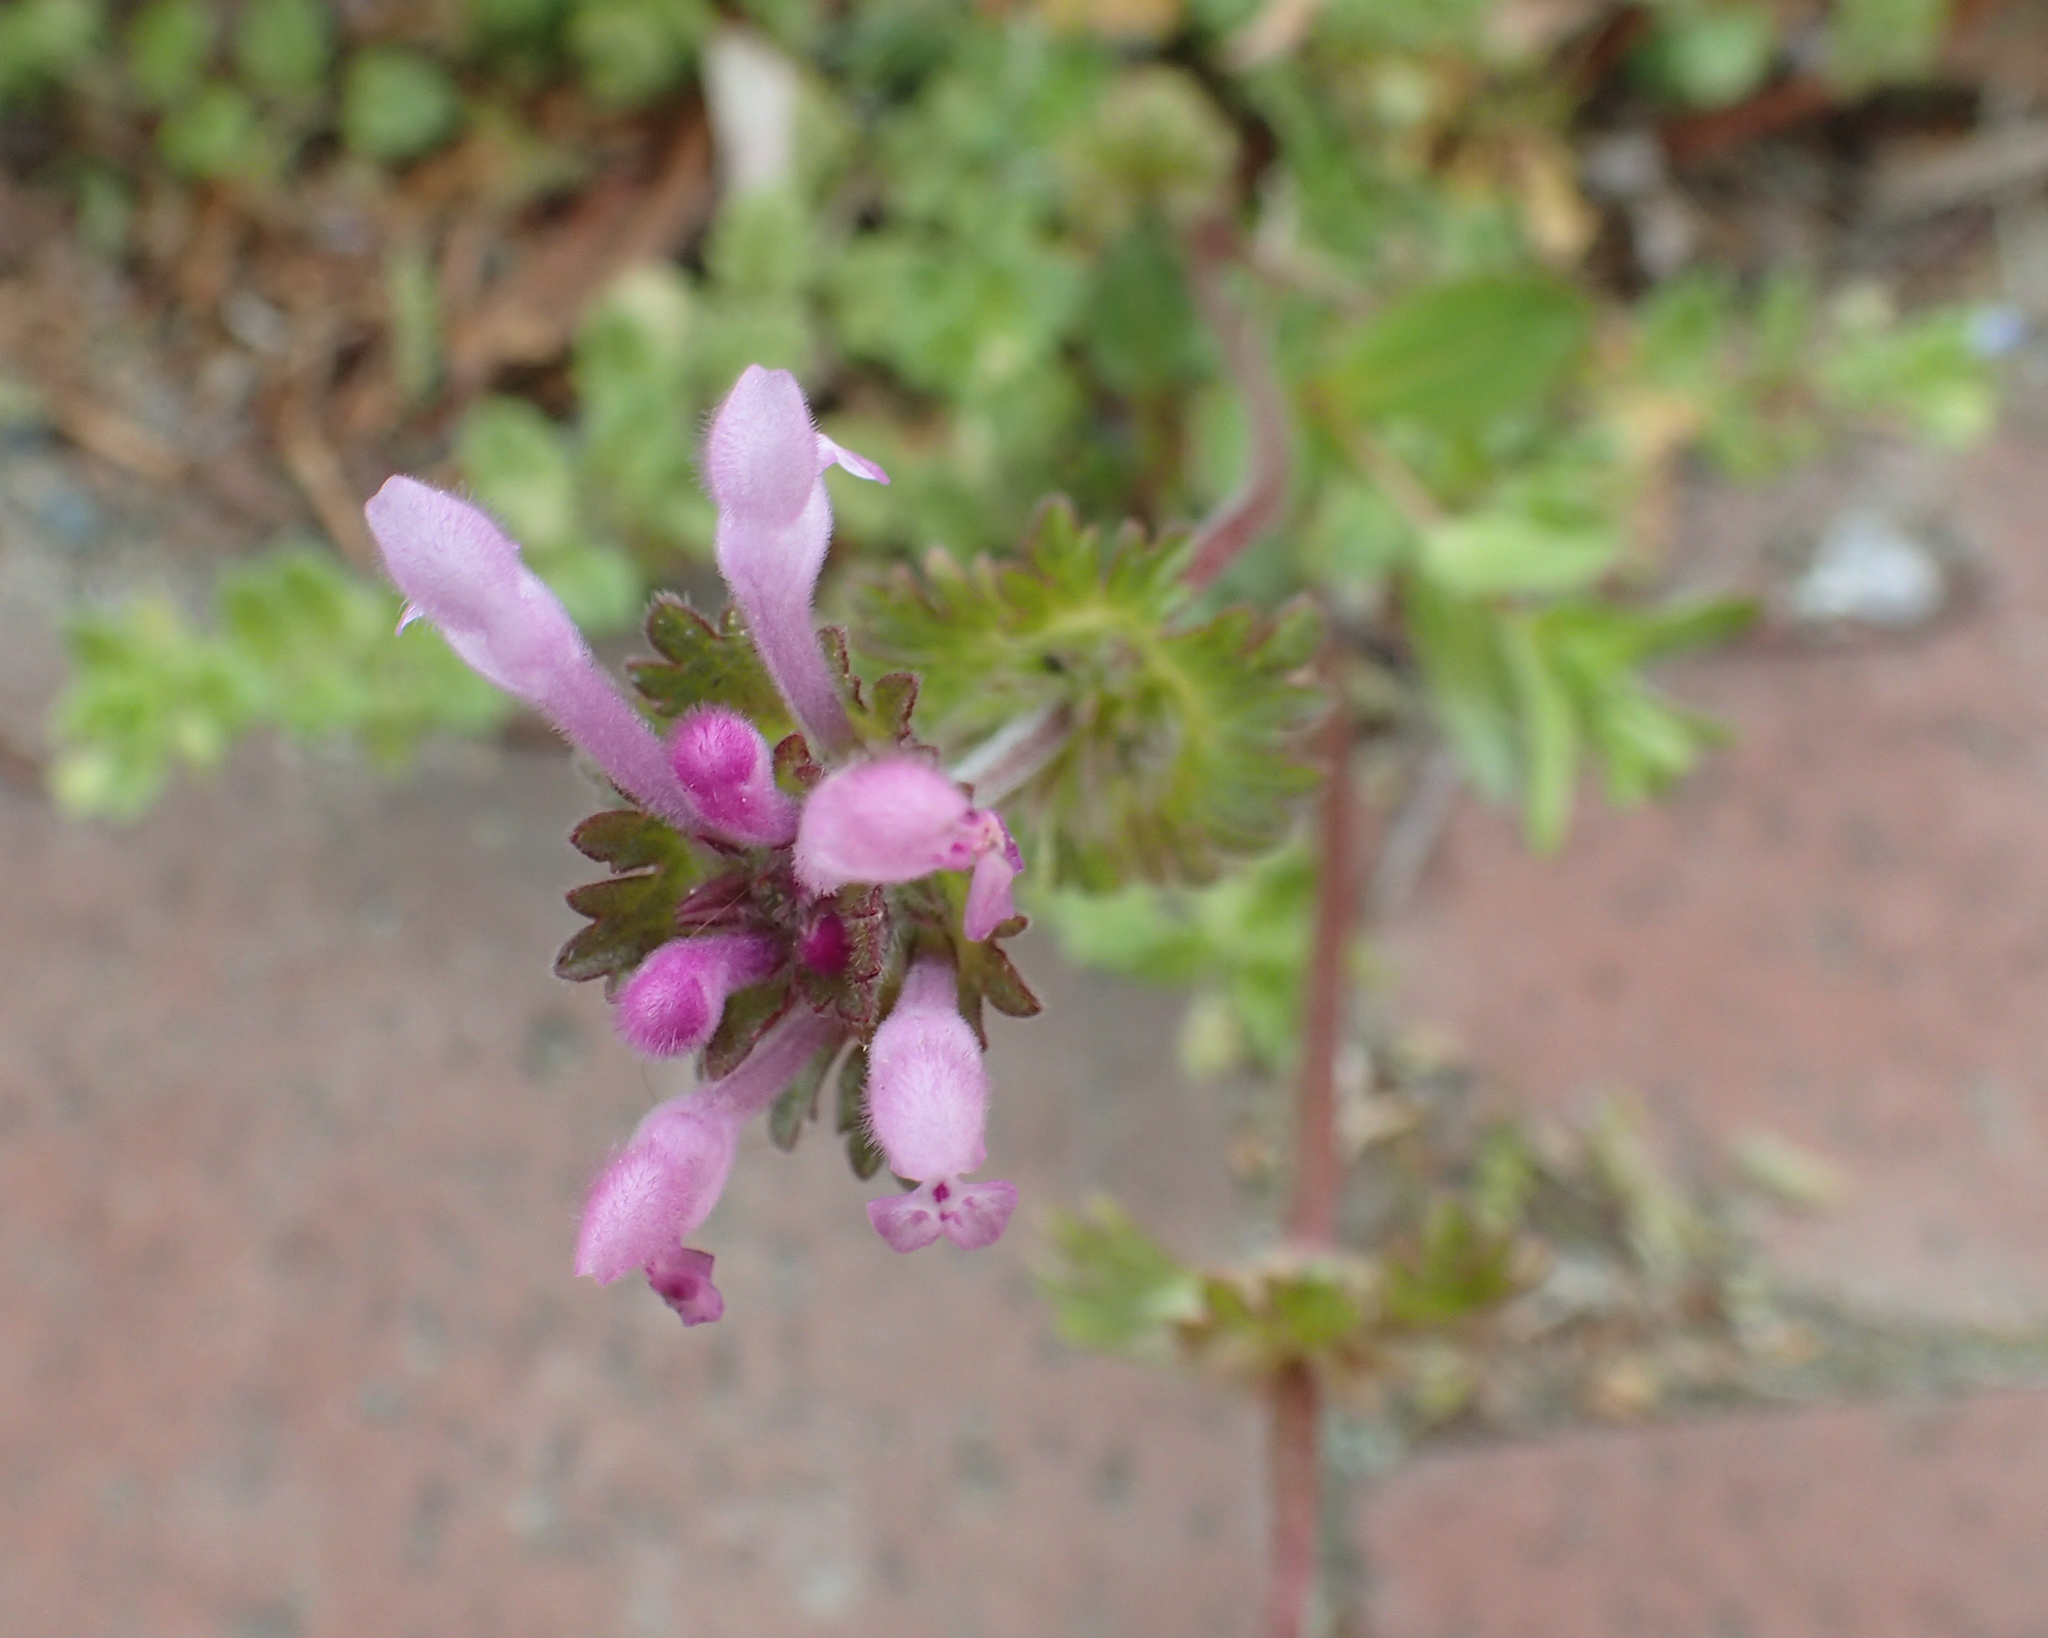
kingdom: Plantae
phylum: Tracheophyta
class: Magnoliopsida
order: Lamiales
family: Lamiaceae
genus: Lamium
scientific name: Lamium amplexicaule
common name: Henbit dead-nettle
